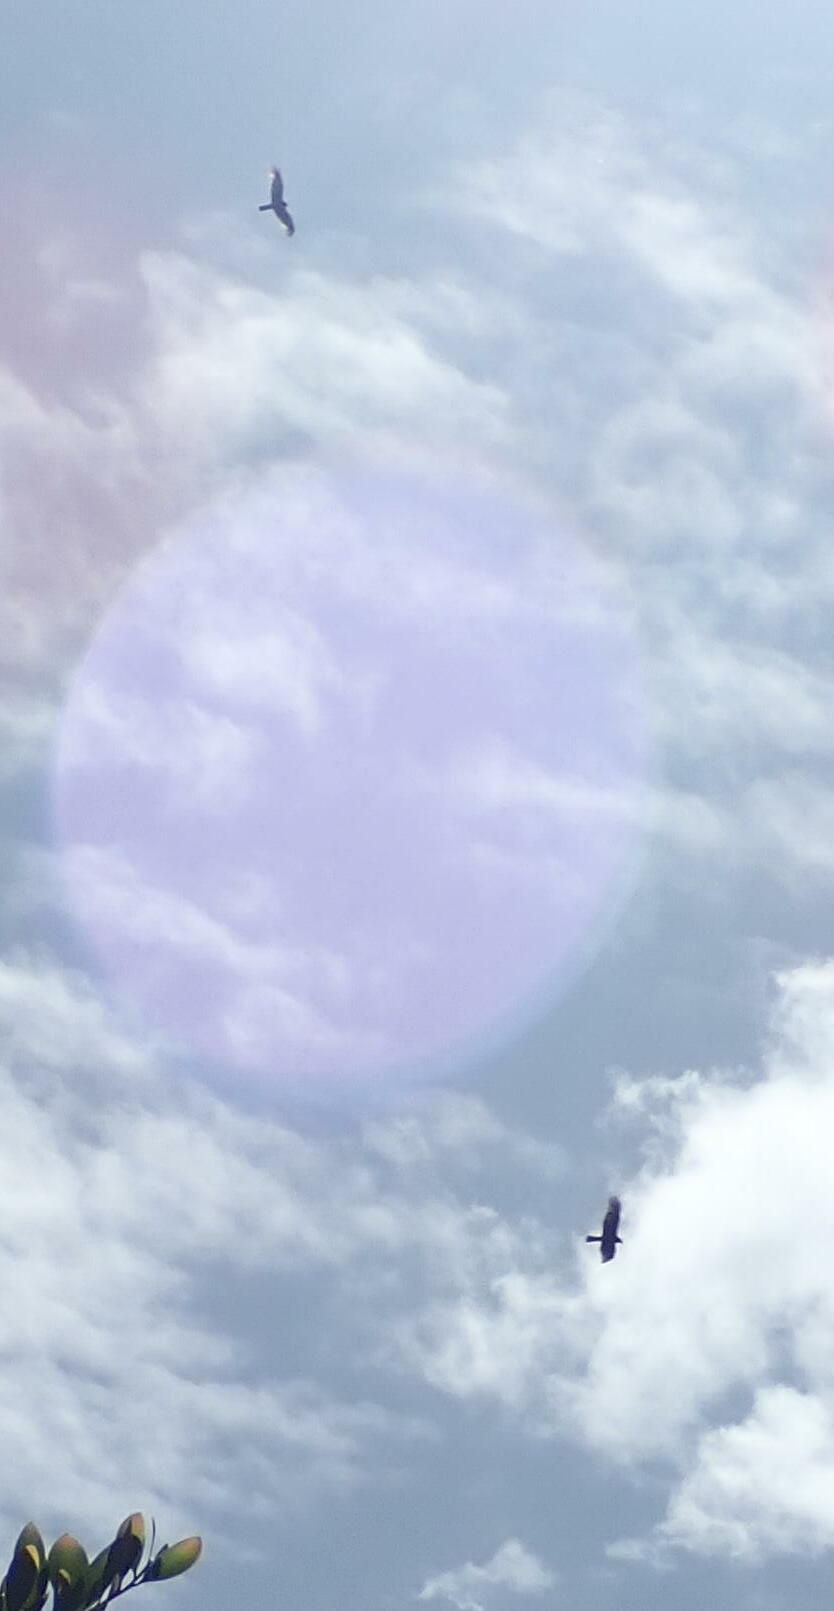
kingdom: Animalia
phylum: Chordata
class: Aves
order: Accipitriformes
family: Accipitridae
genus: Circus
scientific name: Circus approximans
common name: Swamp harrier
